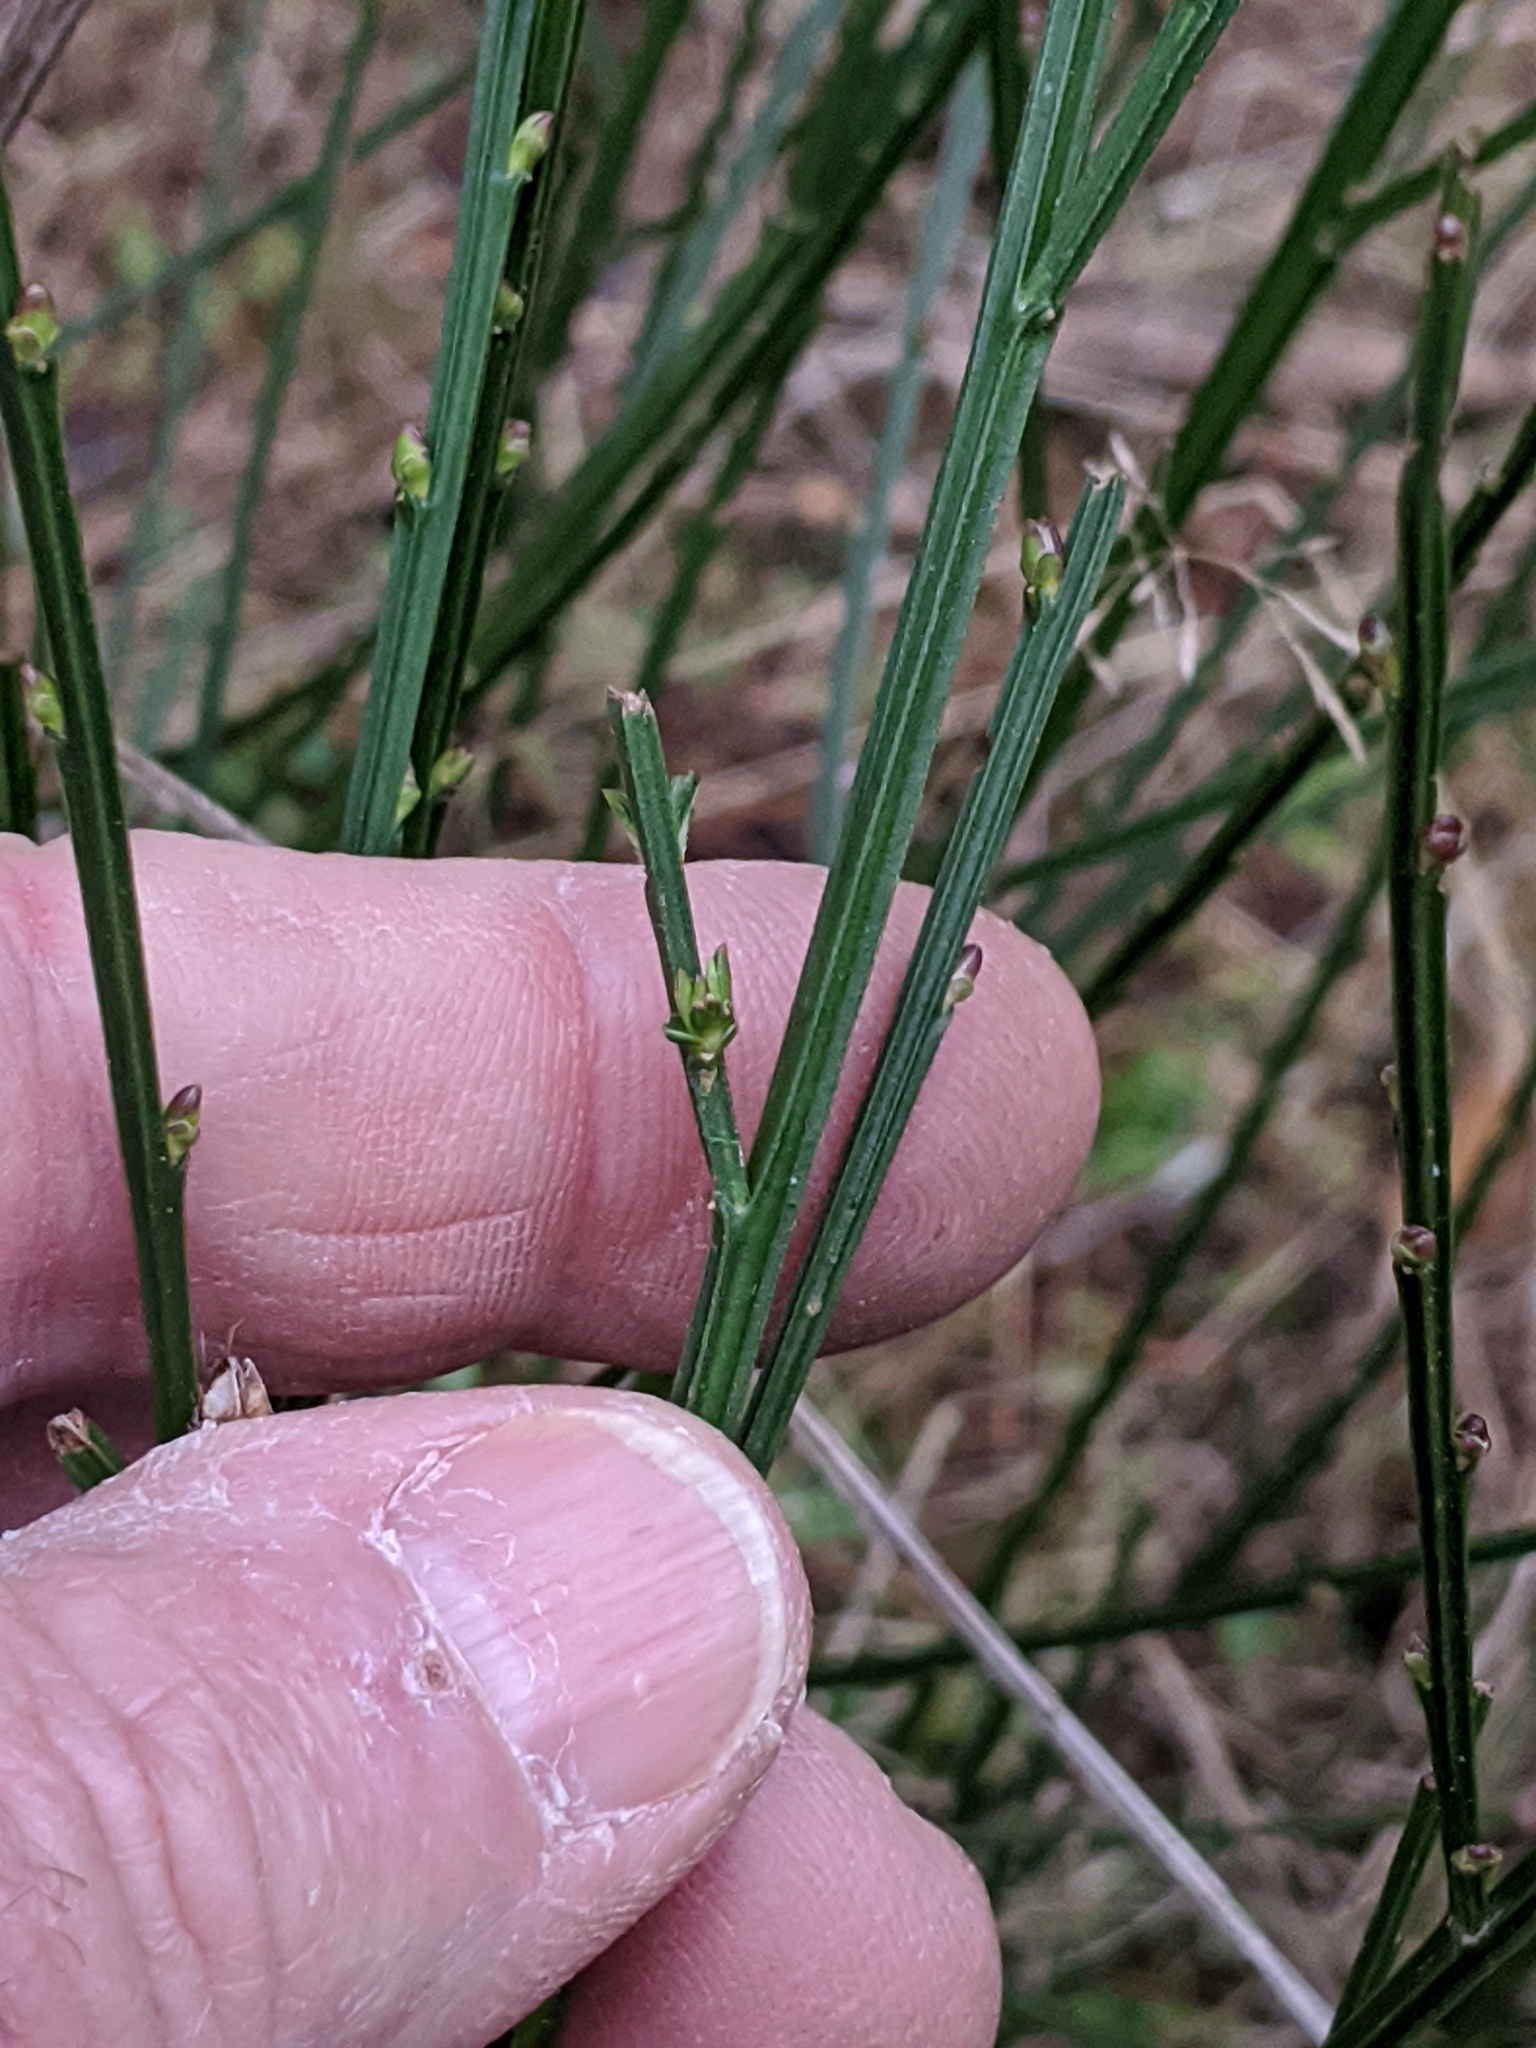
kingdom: Plantae
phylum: Tracheophyta
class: Magnoliopsida
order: Fabales
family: Fabaceae
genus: Cytisus
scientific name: Cytisus scoparius
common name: Scotch broom
